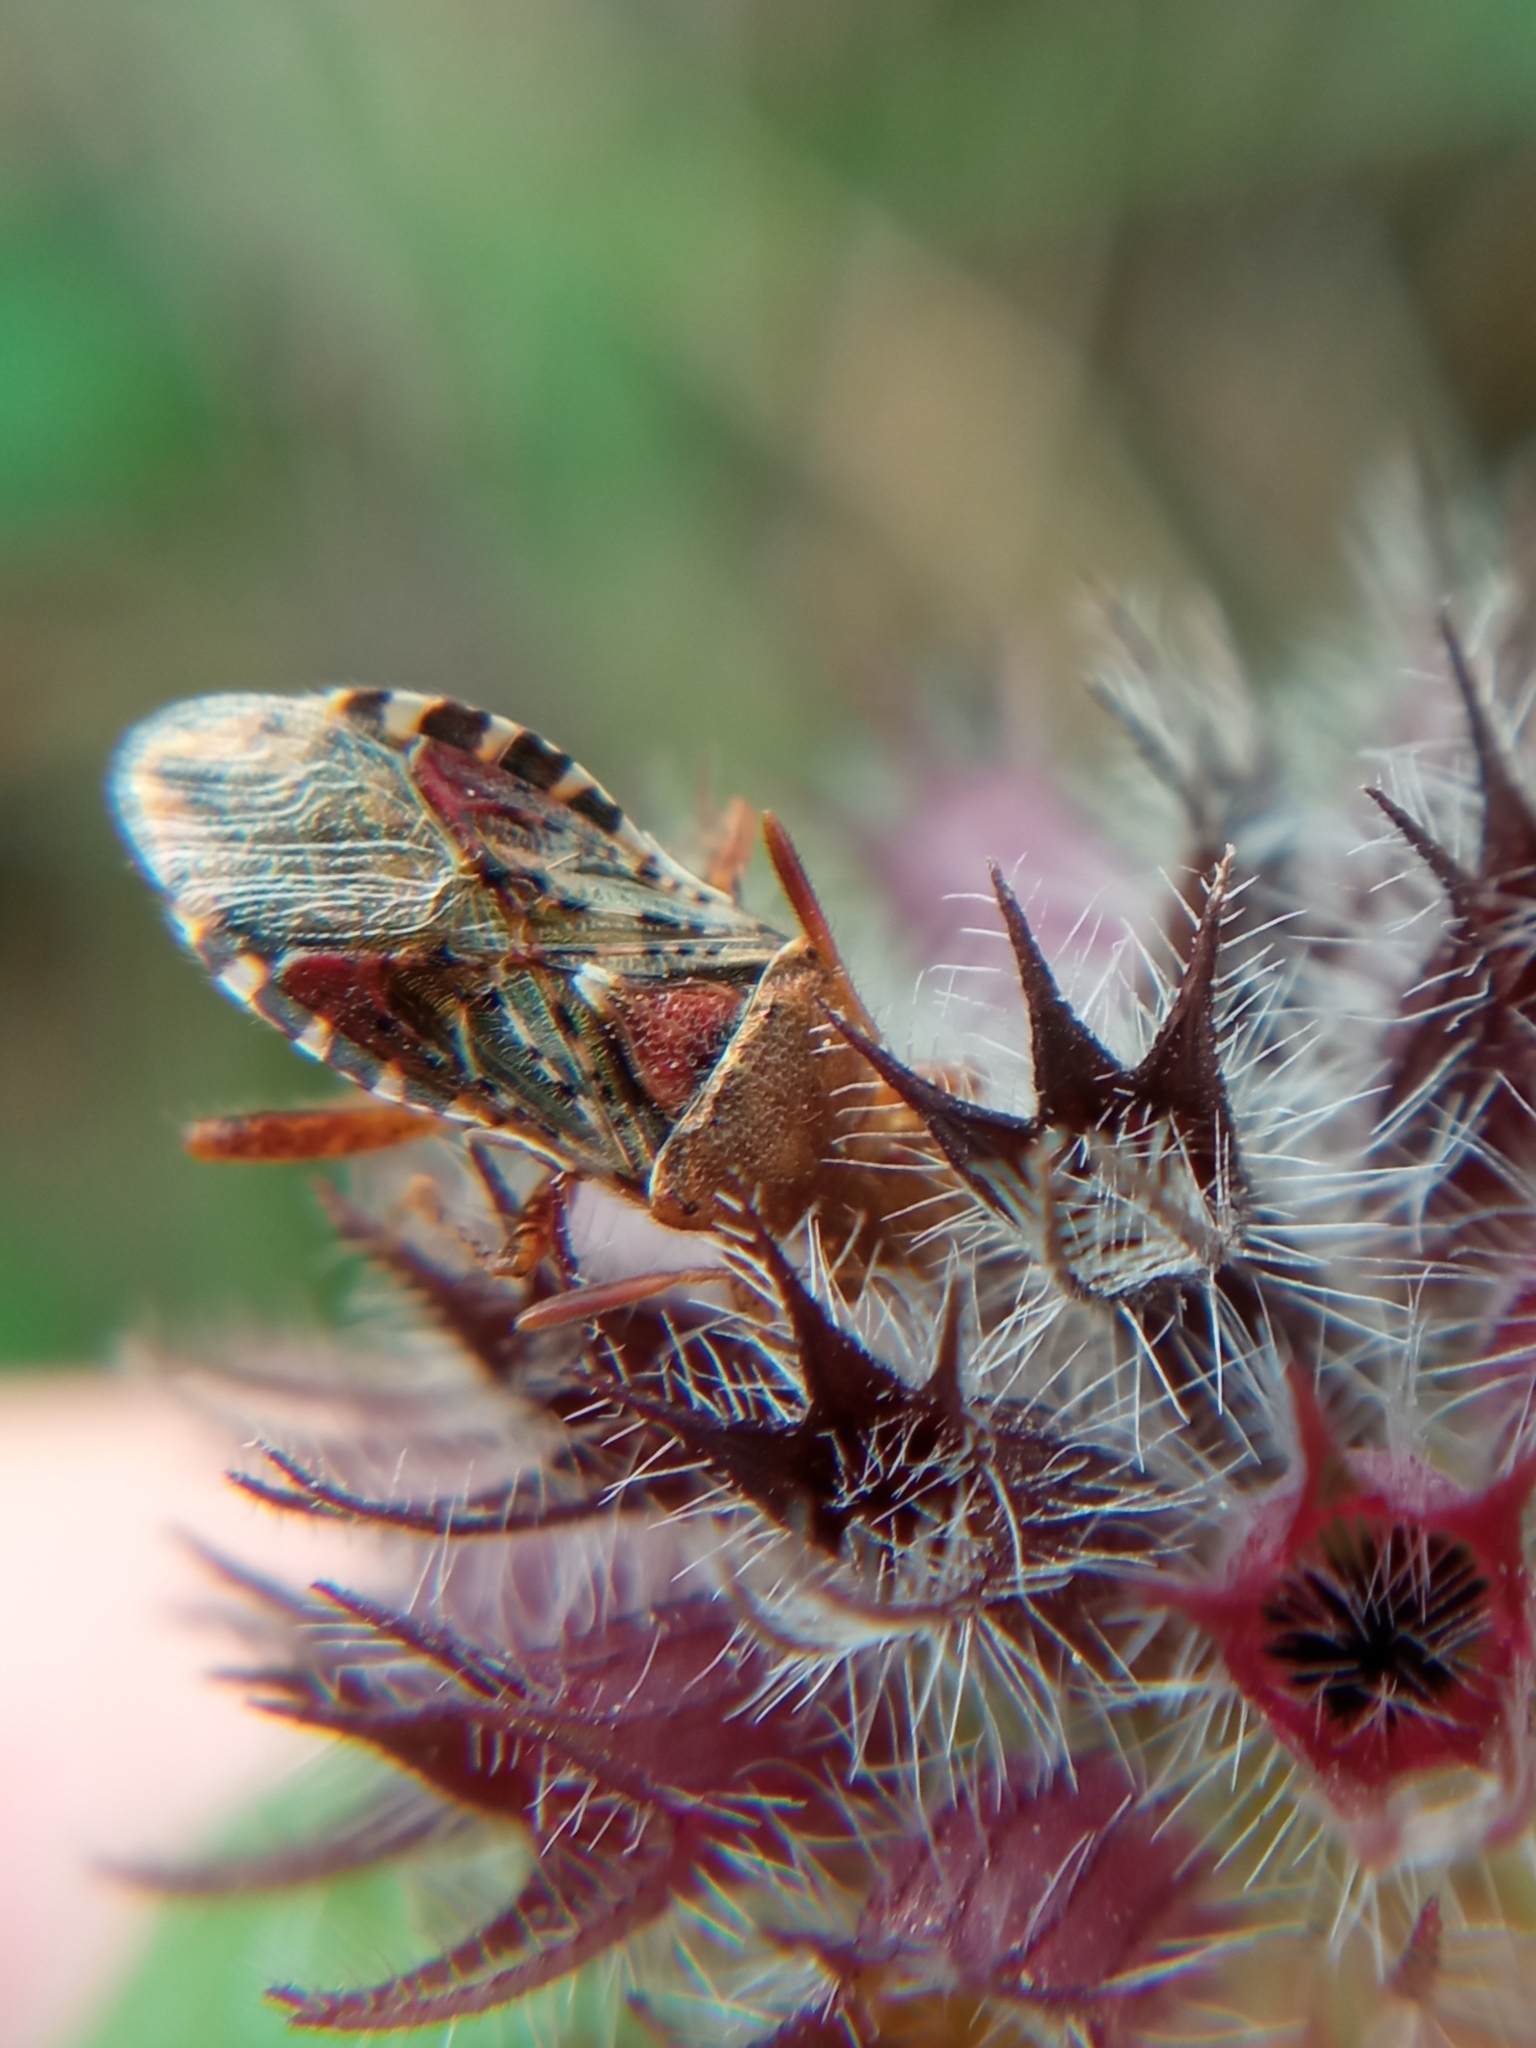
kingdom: Animalia
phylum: Arthropoda
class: Insecta
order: Hemiptera
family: Rhopalidae
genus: Rhopalus
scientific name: Rhopalus subrufus
